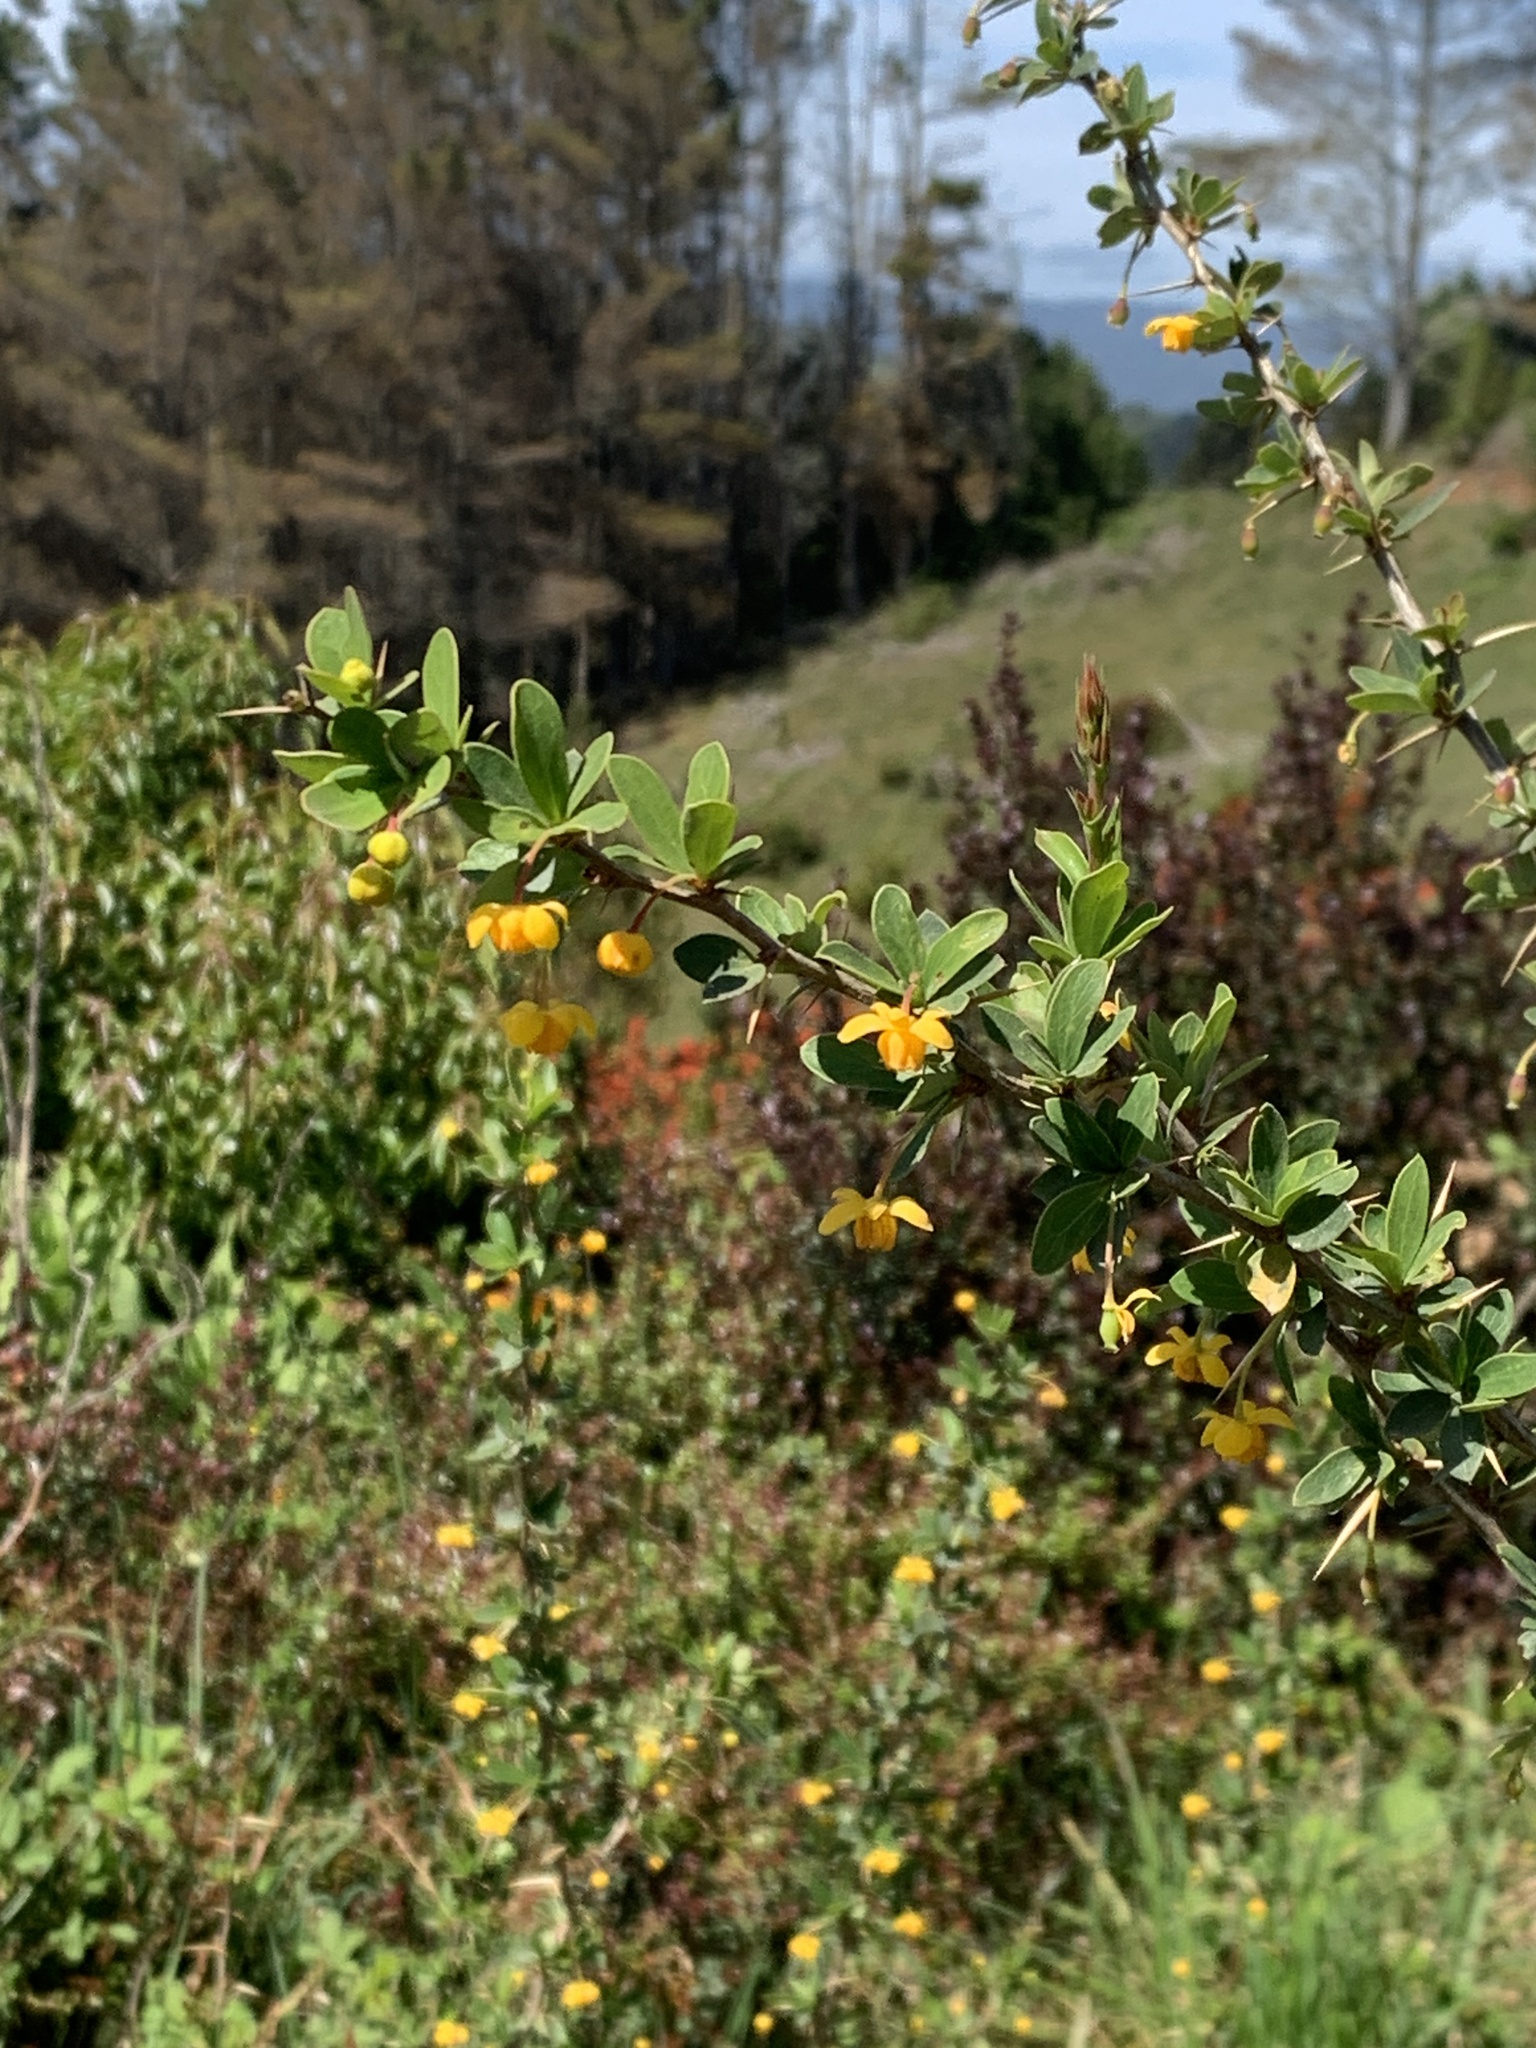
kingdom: Plantae
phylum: Tracheophyta
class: Magnoliopsida
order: Ranunculales
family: Berberidaceae
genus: Berberis
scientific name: Berberis microphylla
